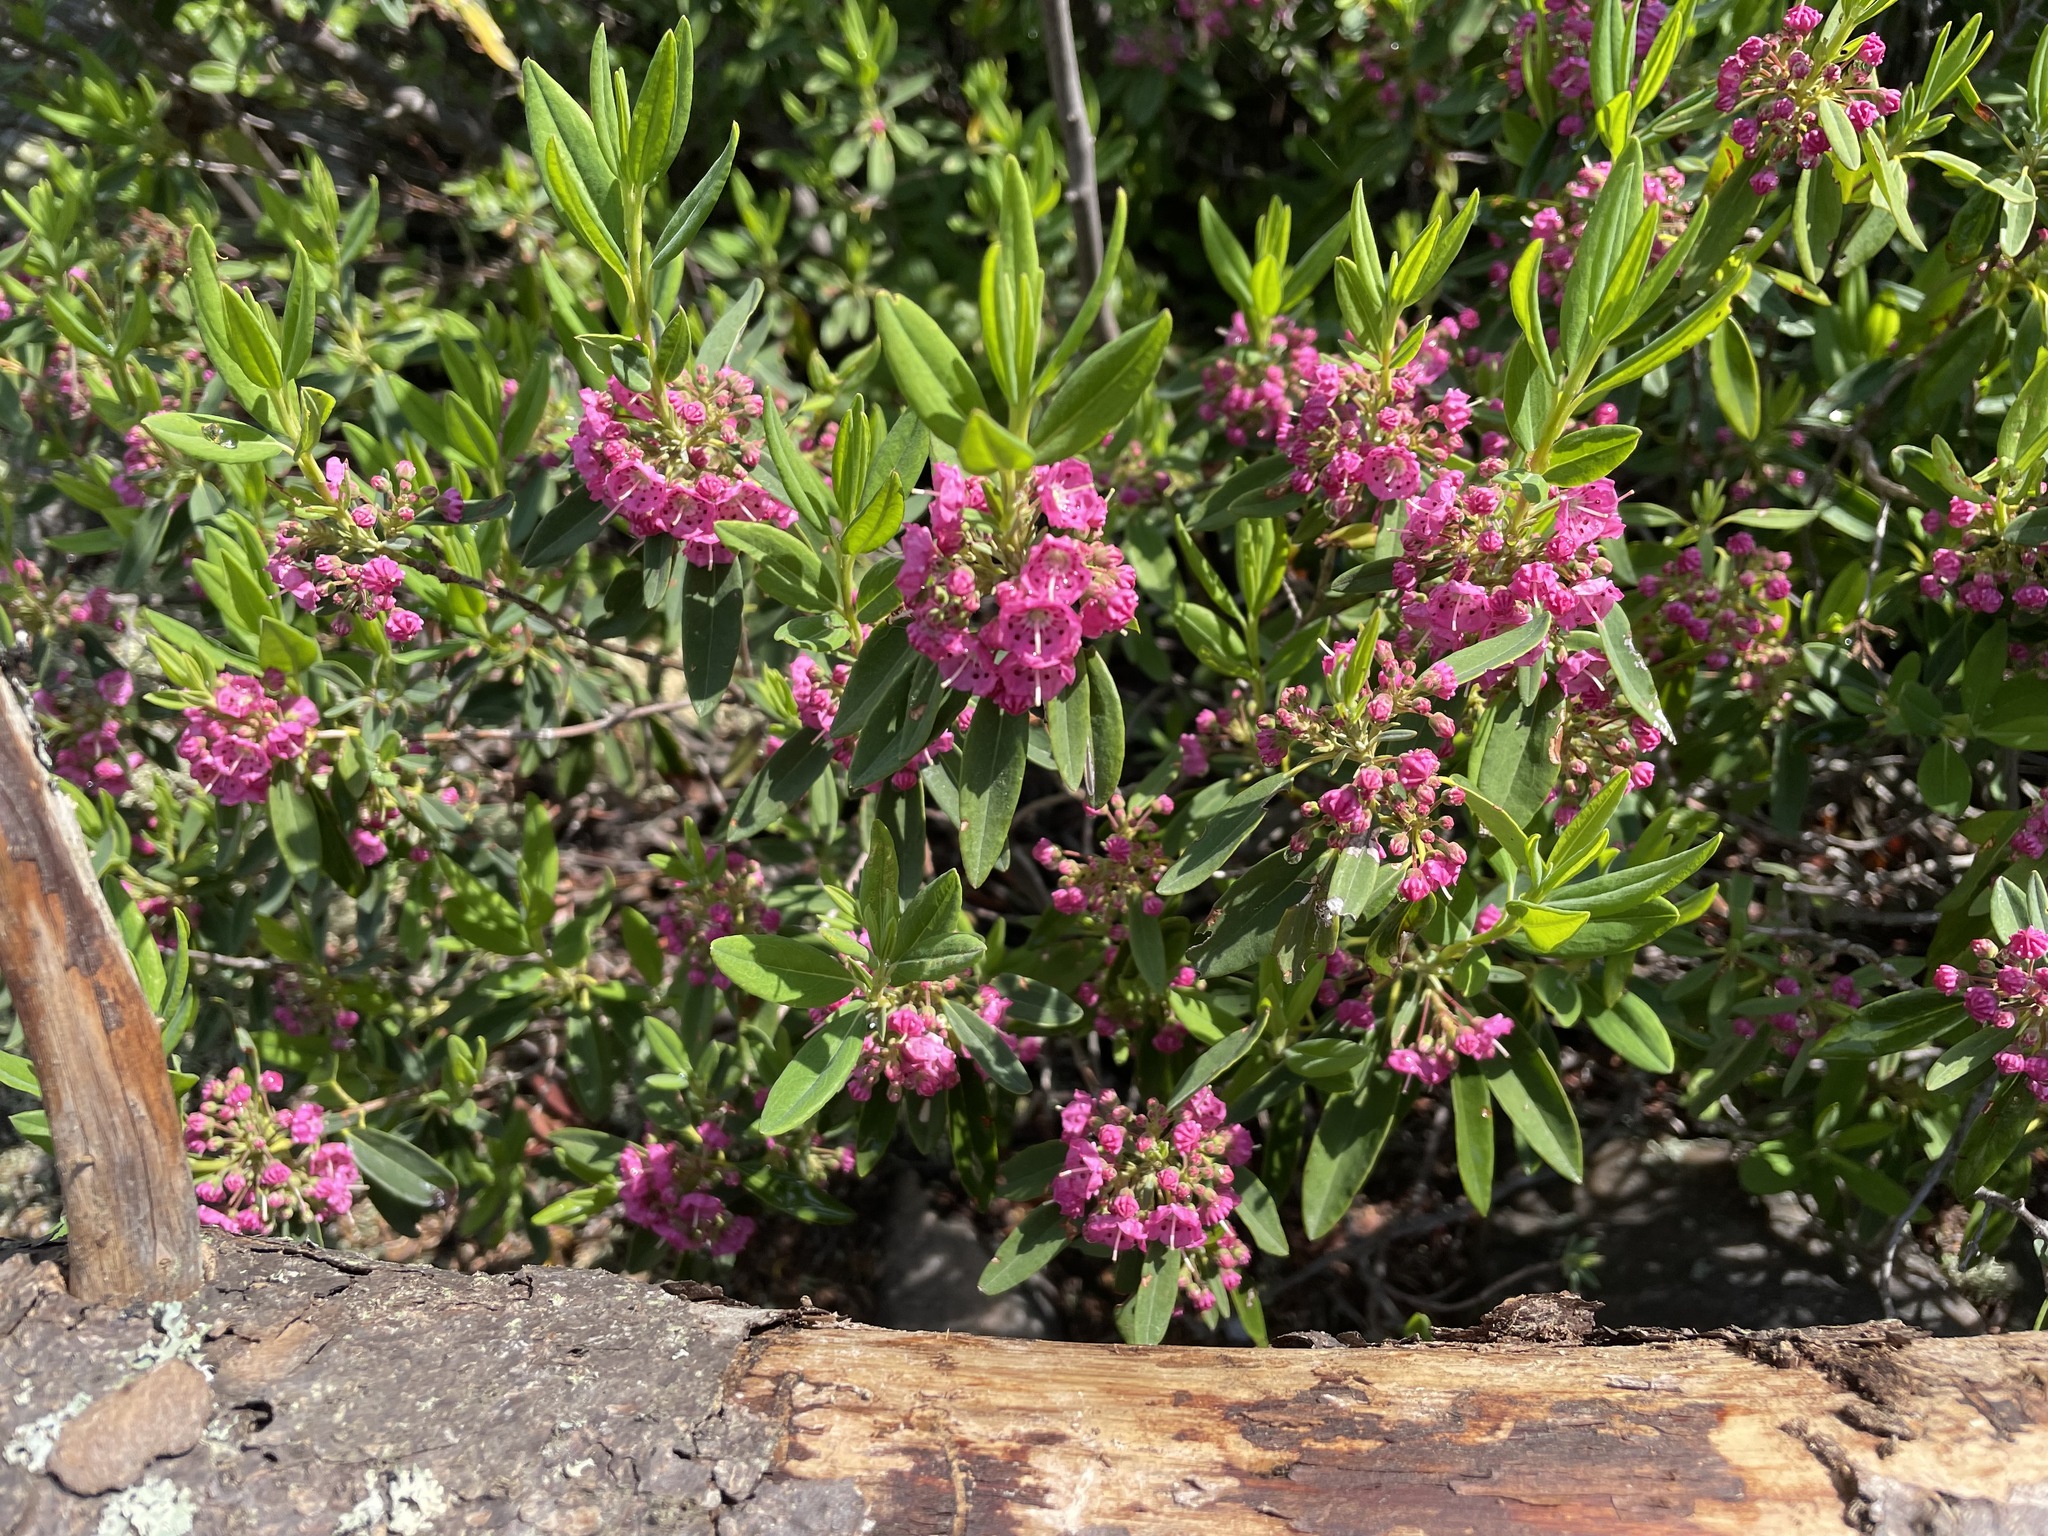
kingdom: Plantae
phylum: Tracheophyta
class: Magnoliopsida
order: Ericales
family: Ericaceae
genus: Kalmia
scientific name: Kalmia angustifolia
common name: Sheep-laurel
